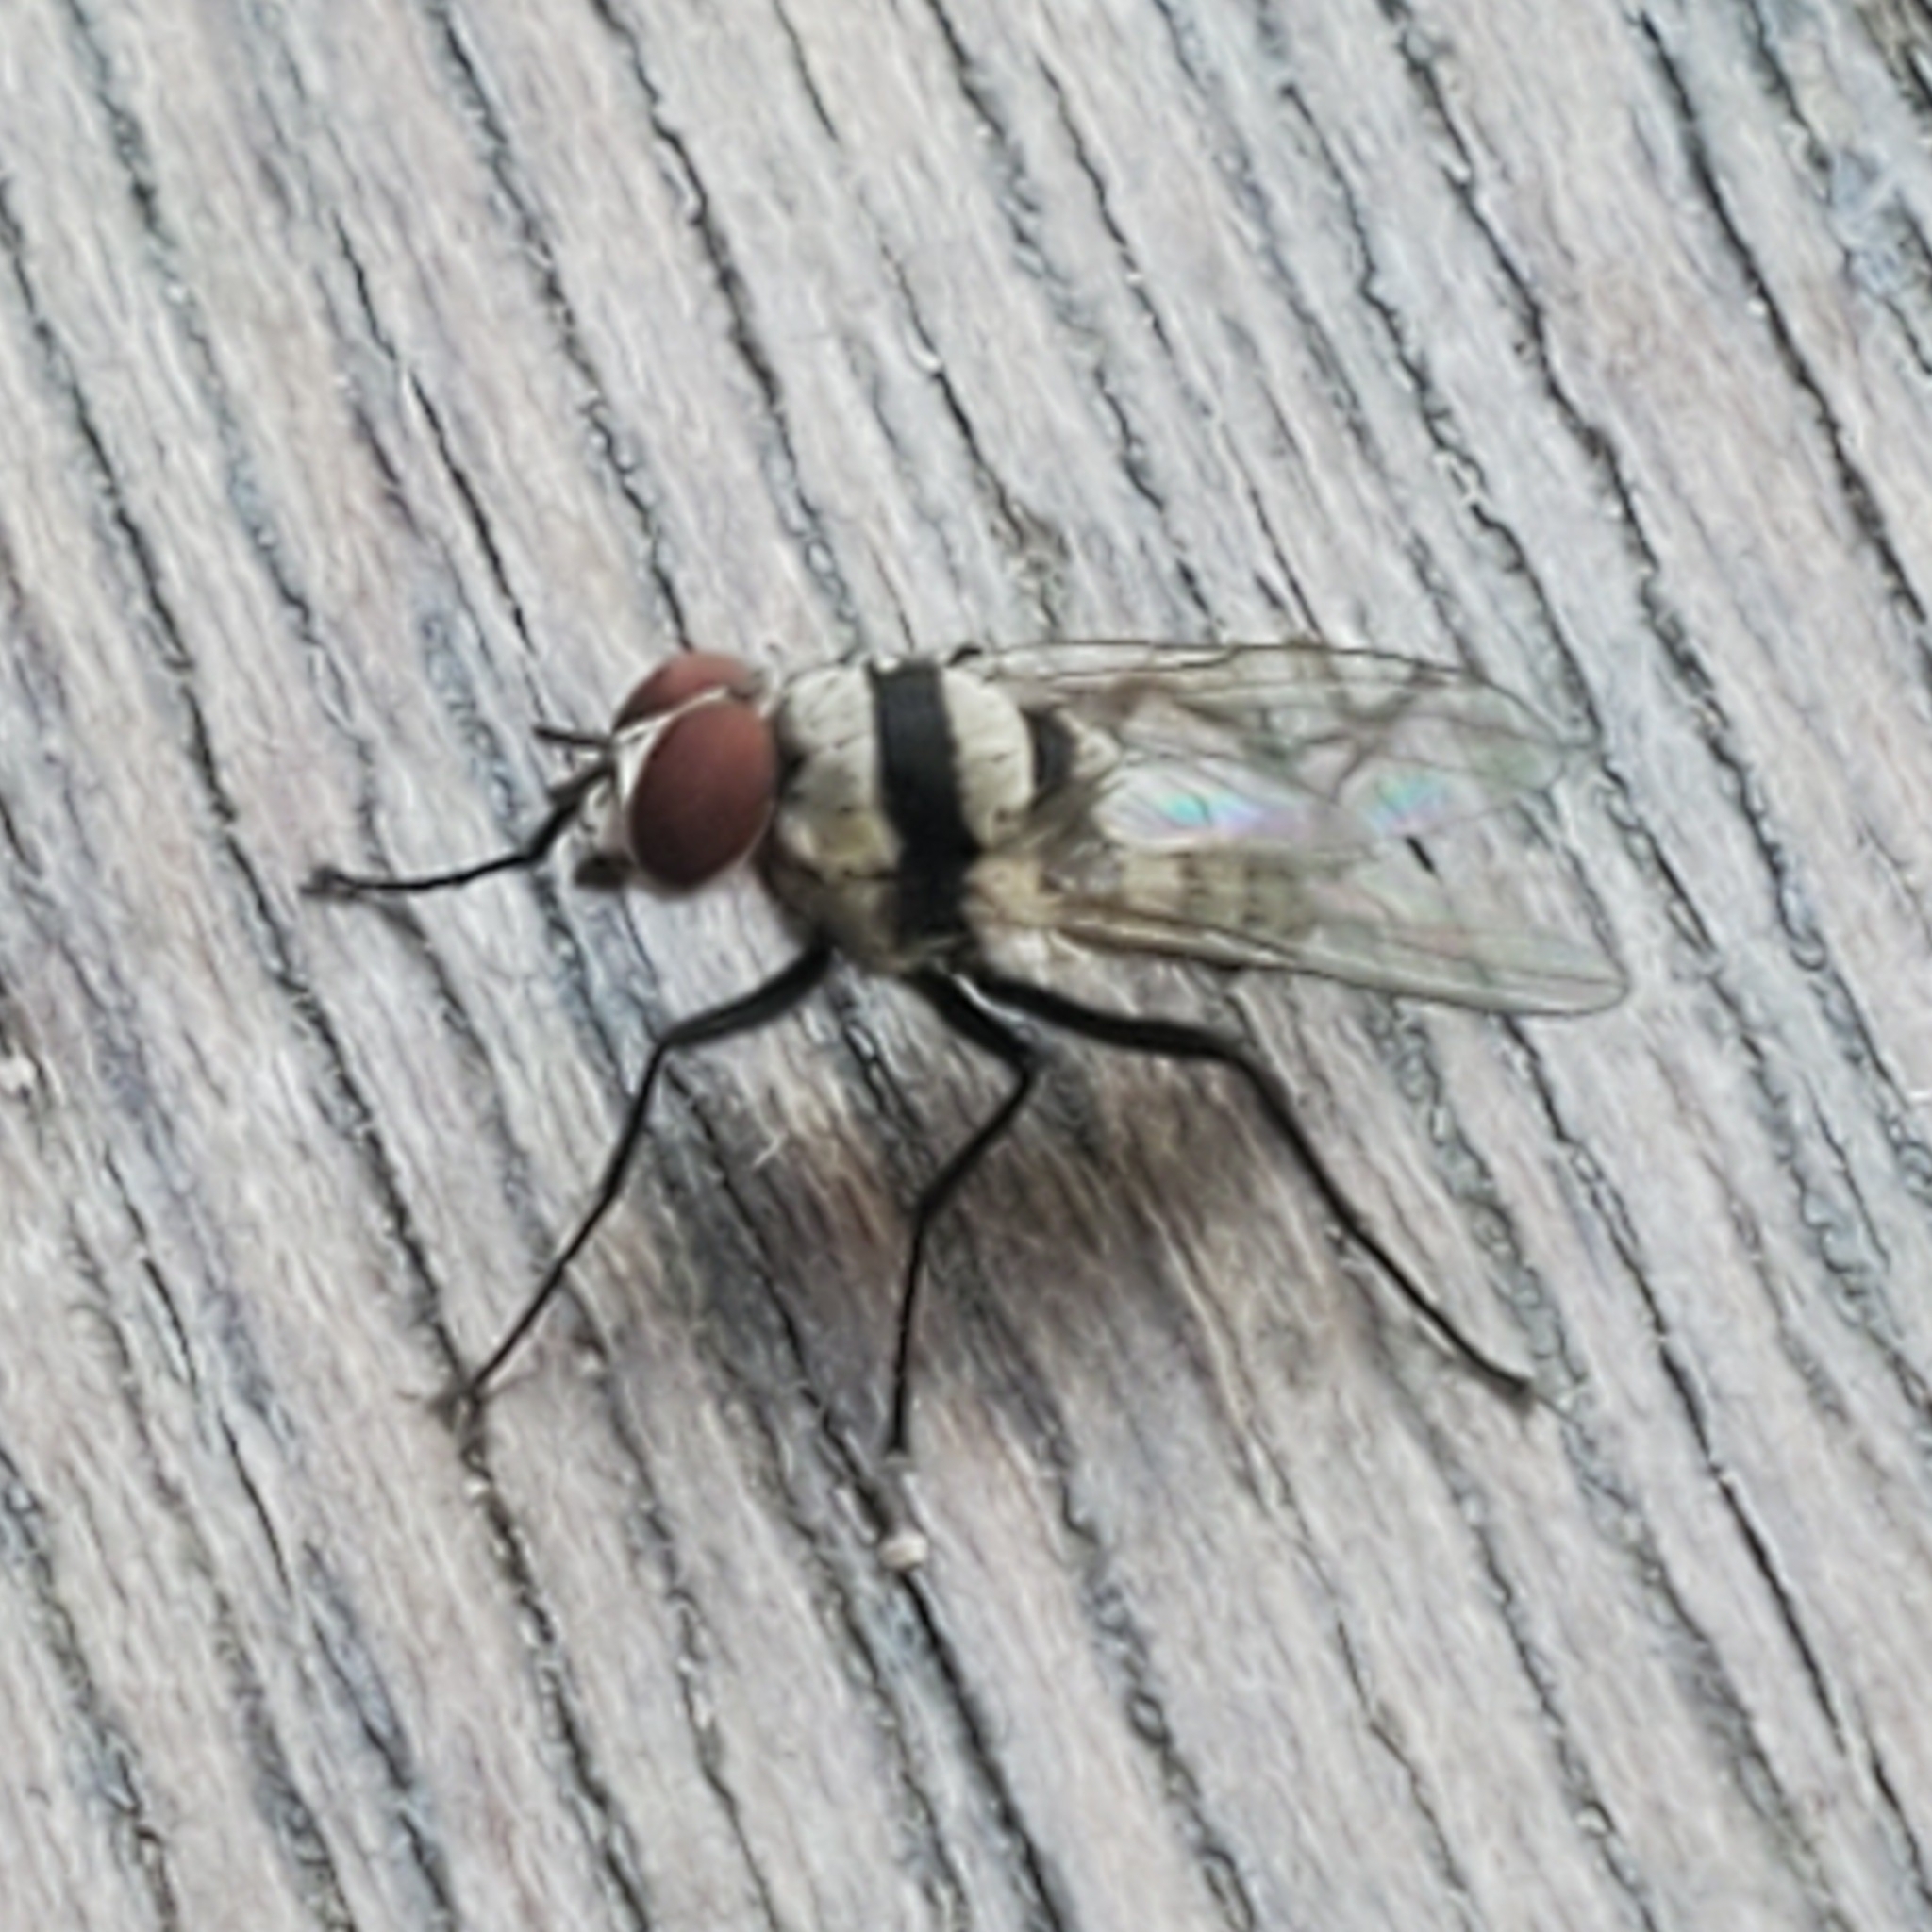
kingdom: Animalia
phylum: Arthropoda
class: Insecta
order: Diptera
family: Anthomyiidae
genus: Anthomyia
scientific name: Anthomyia illocata
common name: Fly
